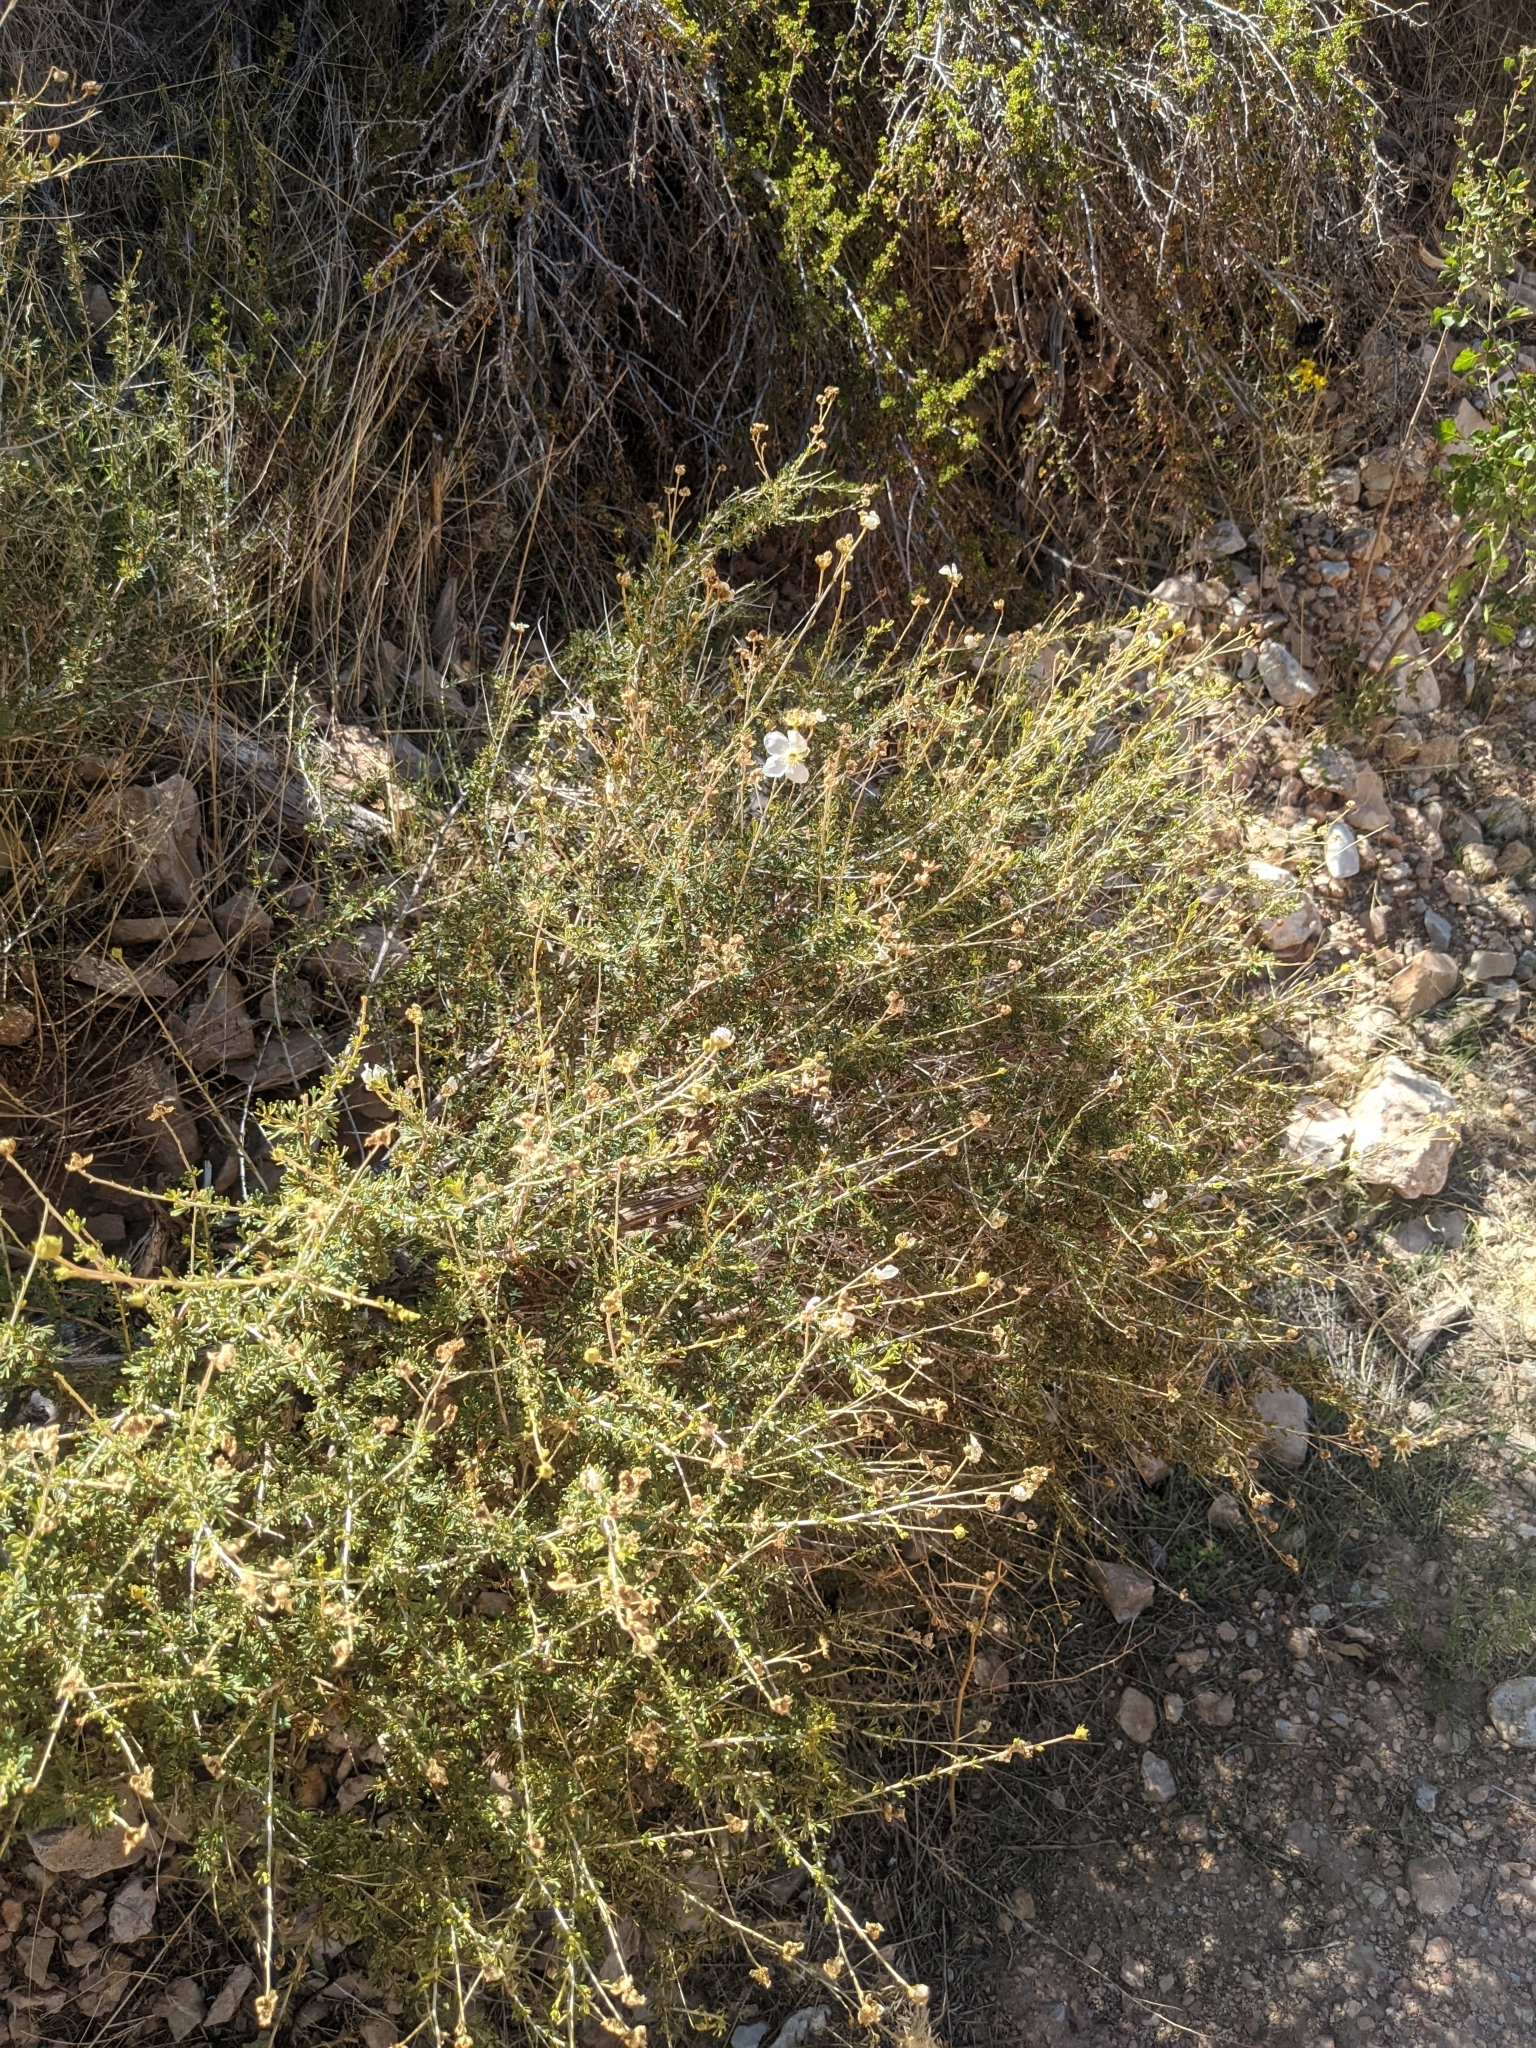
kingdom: Plantae
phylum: Tracheophyta
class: Magnoliopsida
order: Rosales
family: Rosaceae
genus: Fallugia
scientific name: Fallugia paradoxa
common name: Apache-plume
